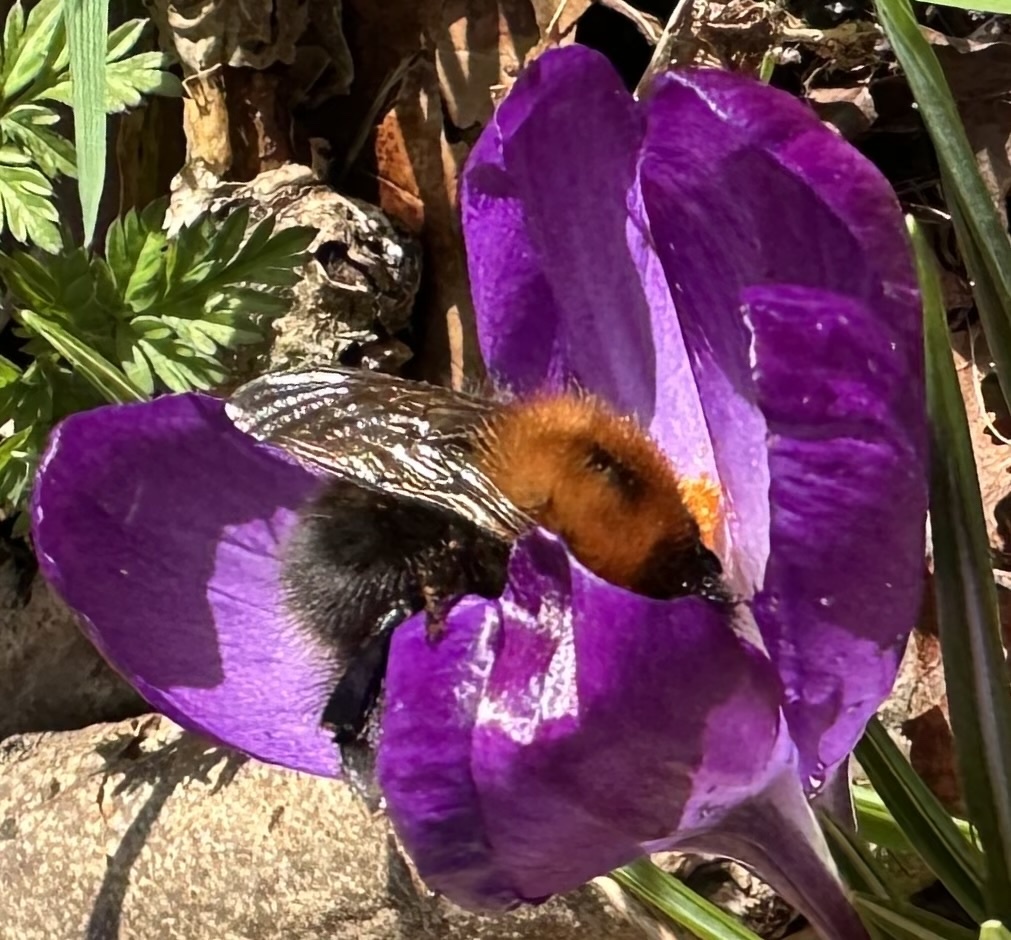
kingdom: Animalia
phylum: Arthropoda
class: Insecta
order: Hymenoptera
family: Apidae
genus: Bombus
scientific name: Bombus hypnorum
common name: New garden bumblebee
